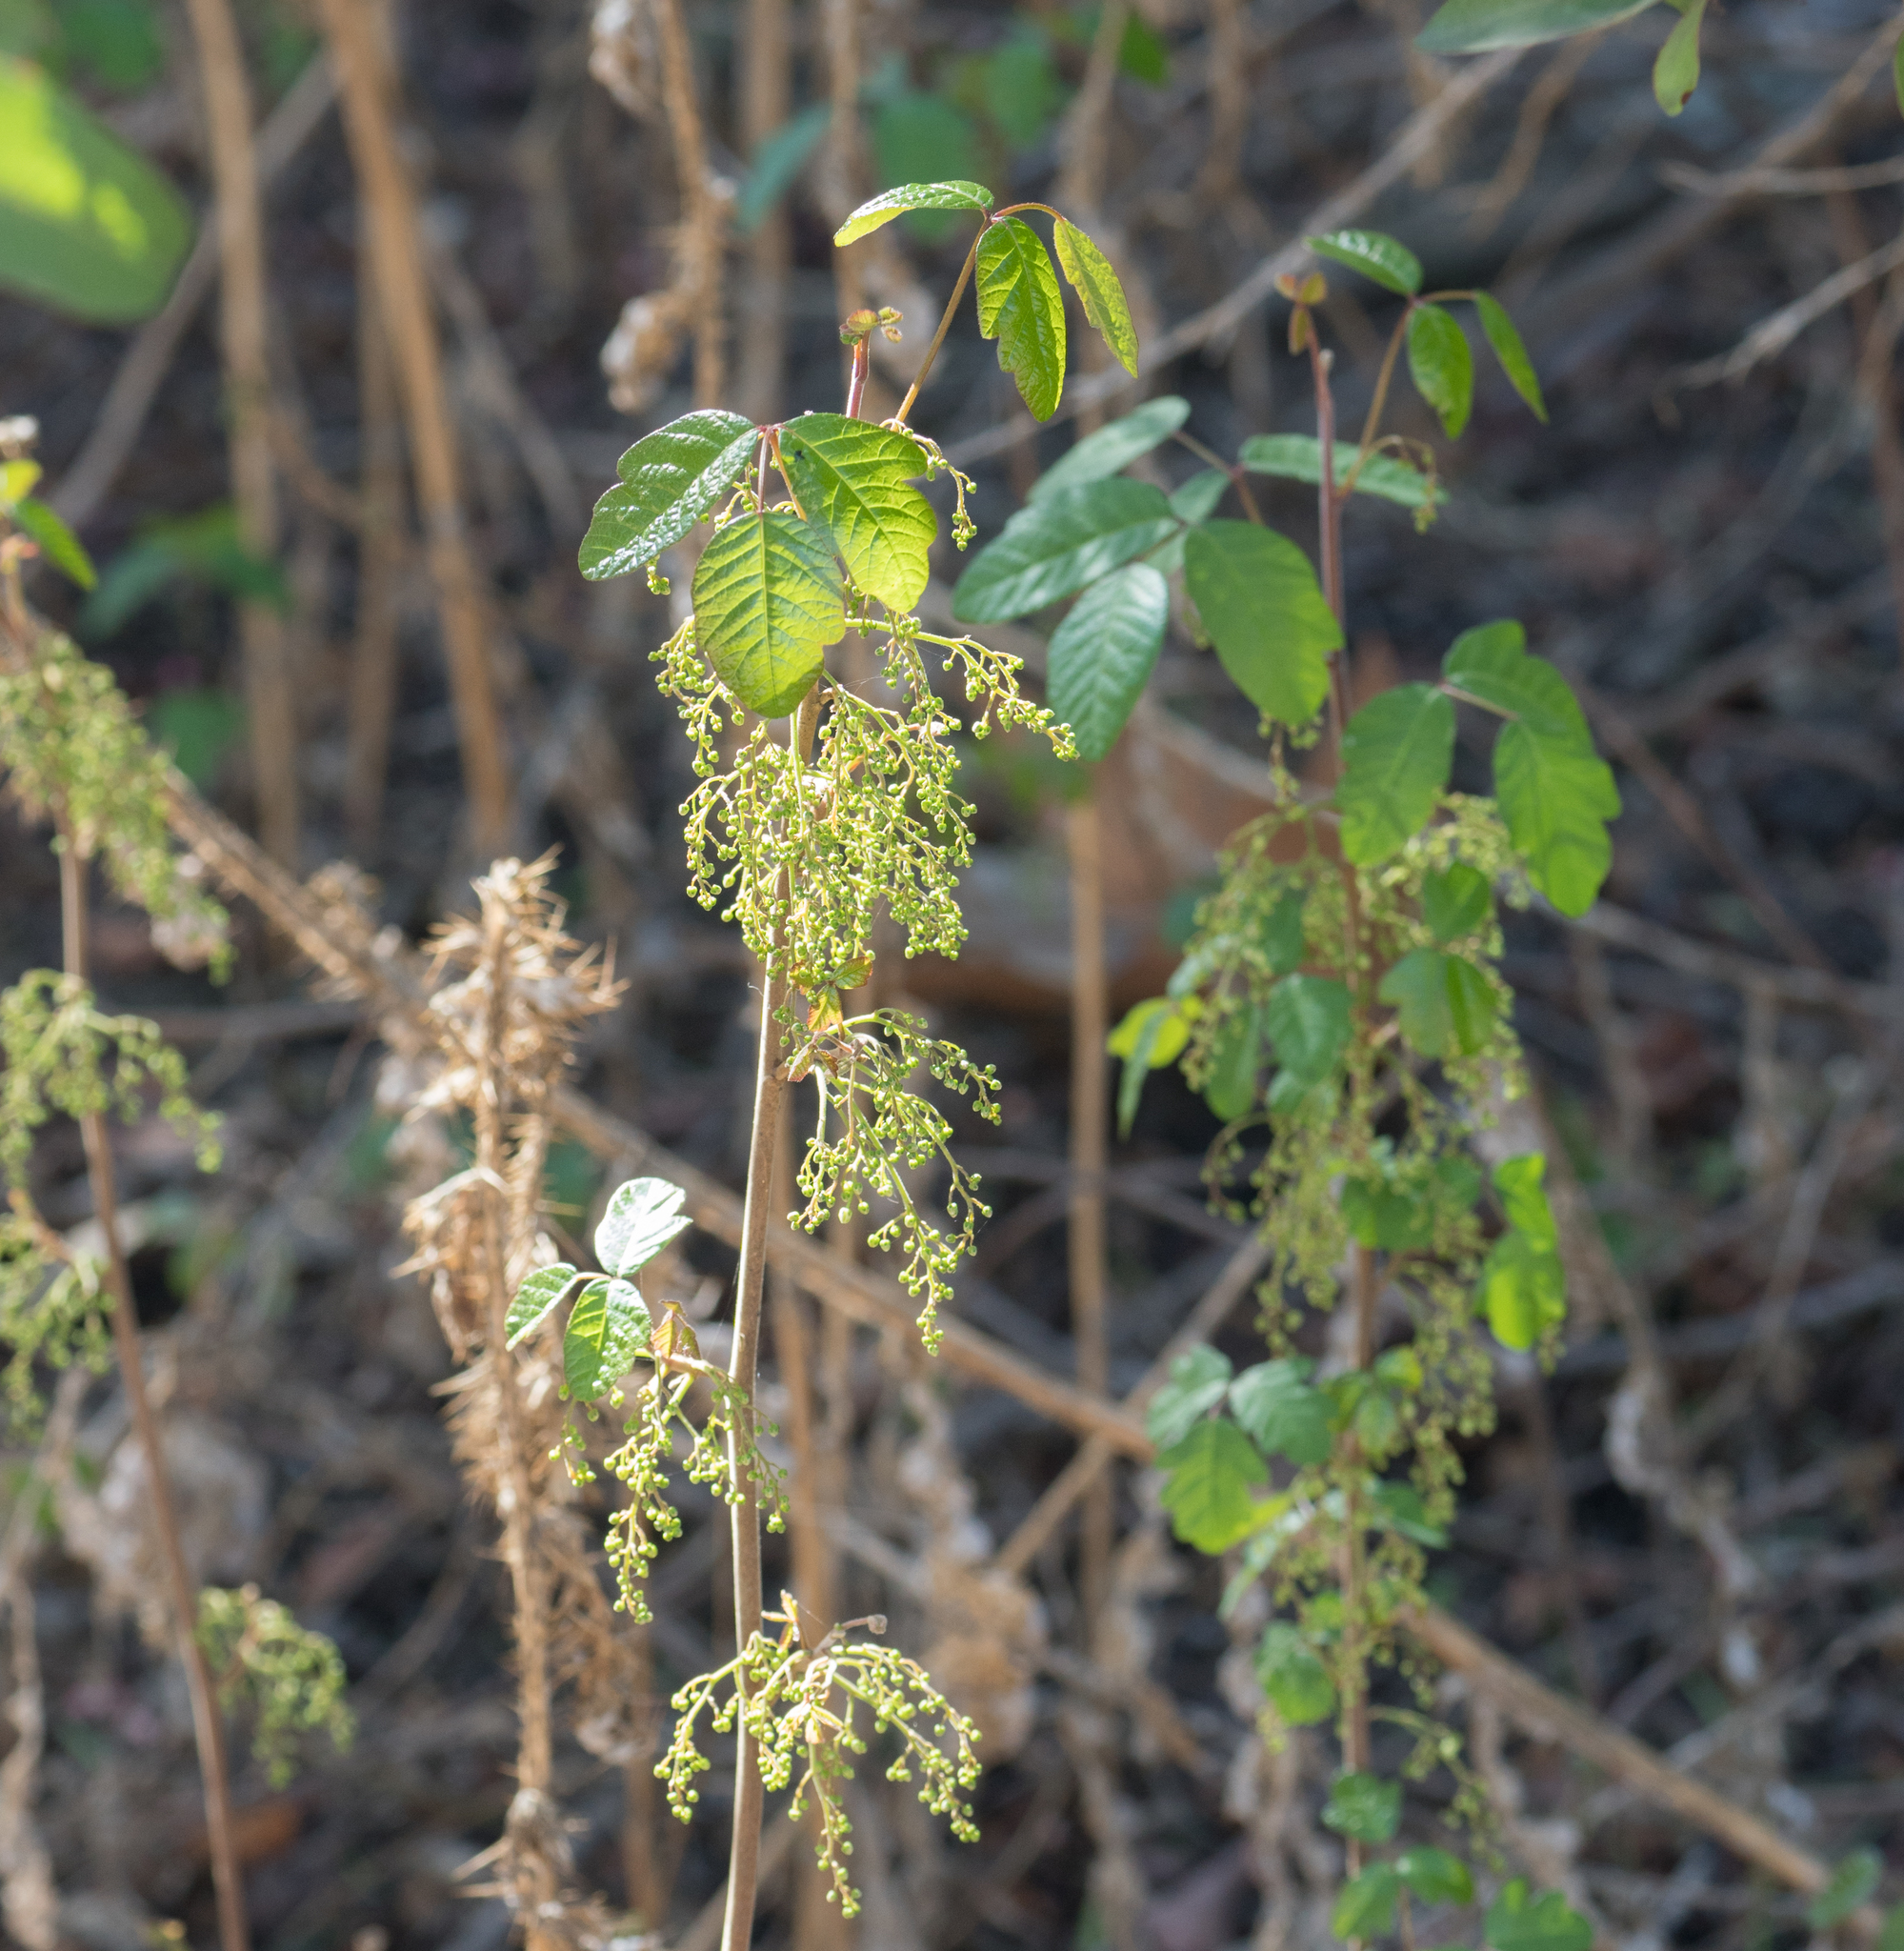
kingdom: Plantae
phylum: Tracheophyta
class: Magnoliopsida
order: Sapindales
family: Anacardiaceae
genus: Toxicodendron
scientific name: Toxicodendron diversilobum
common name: Pacific poison-oak
